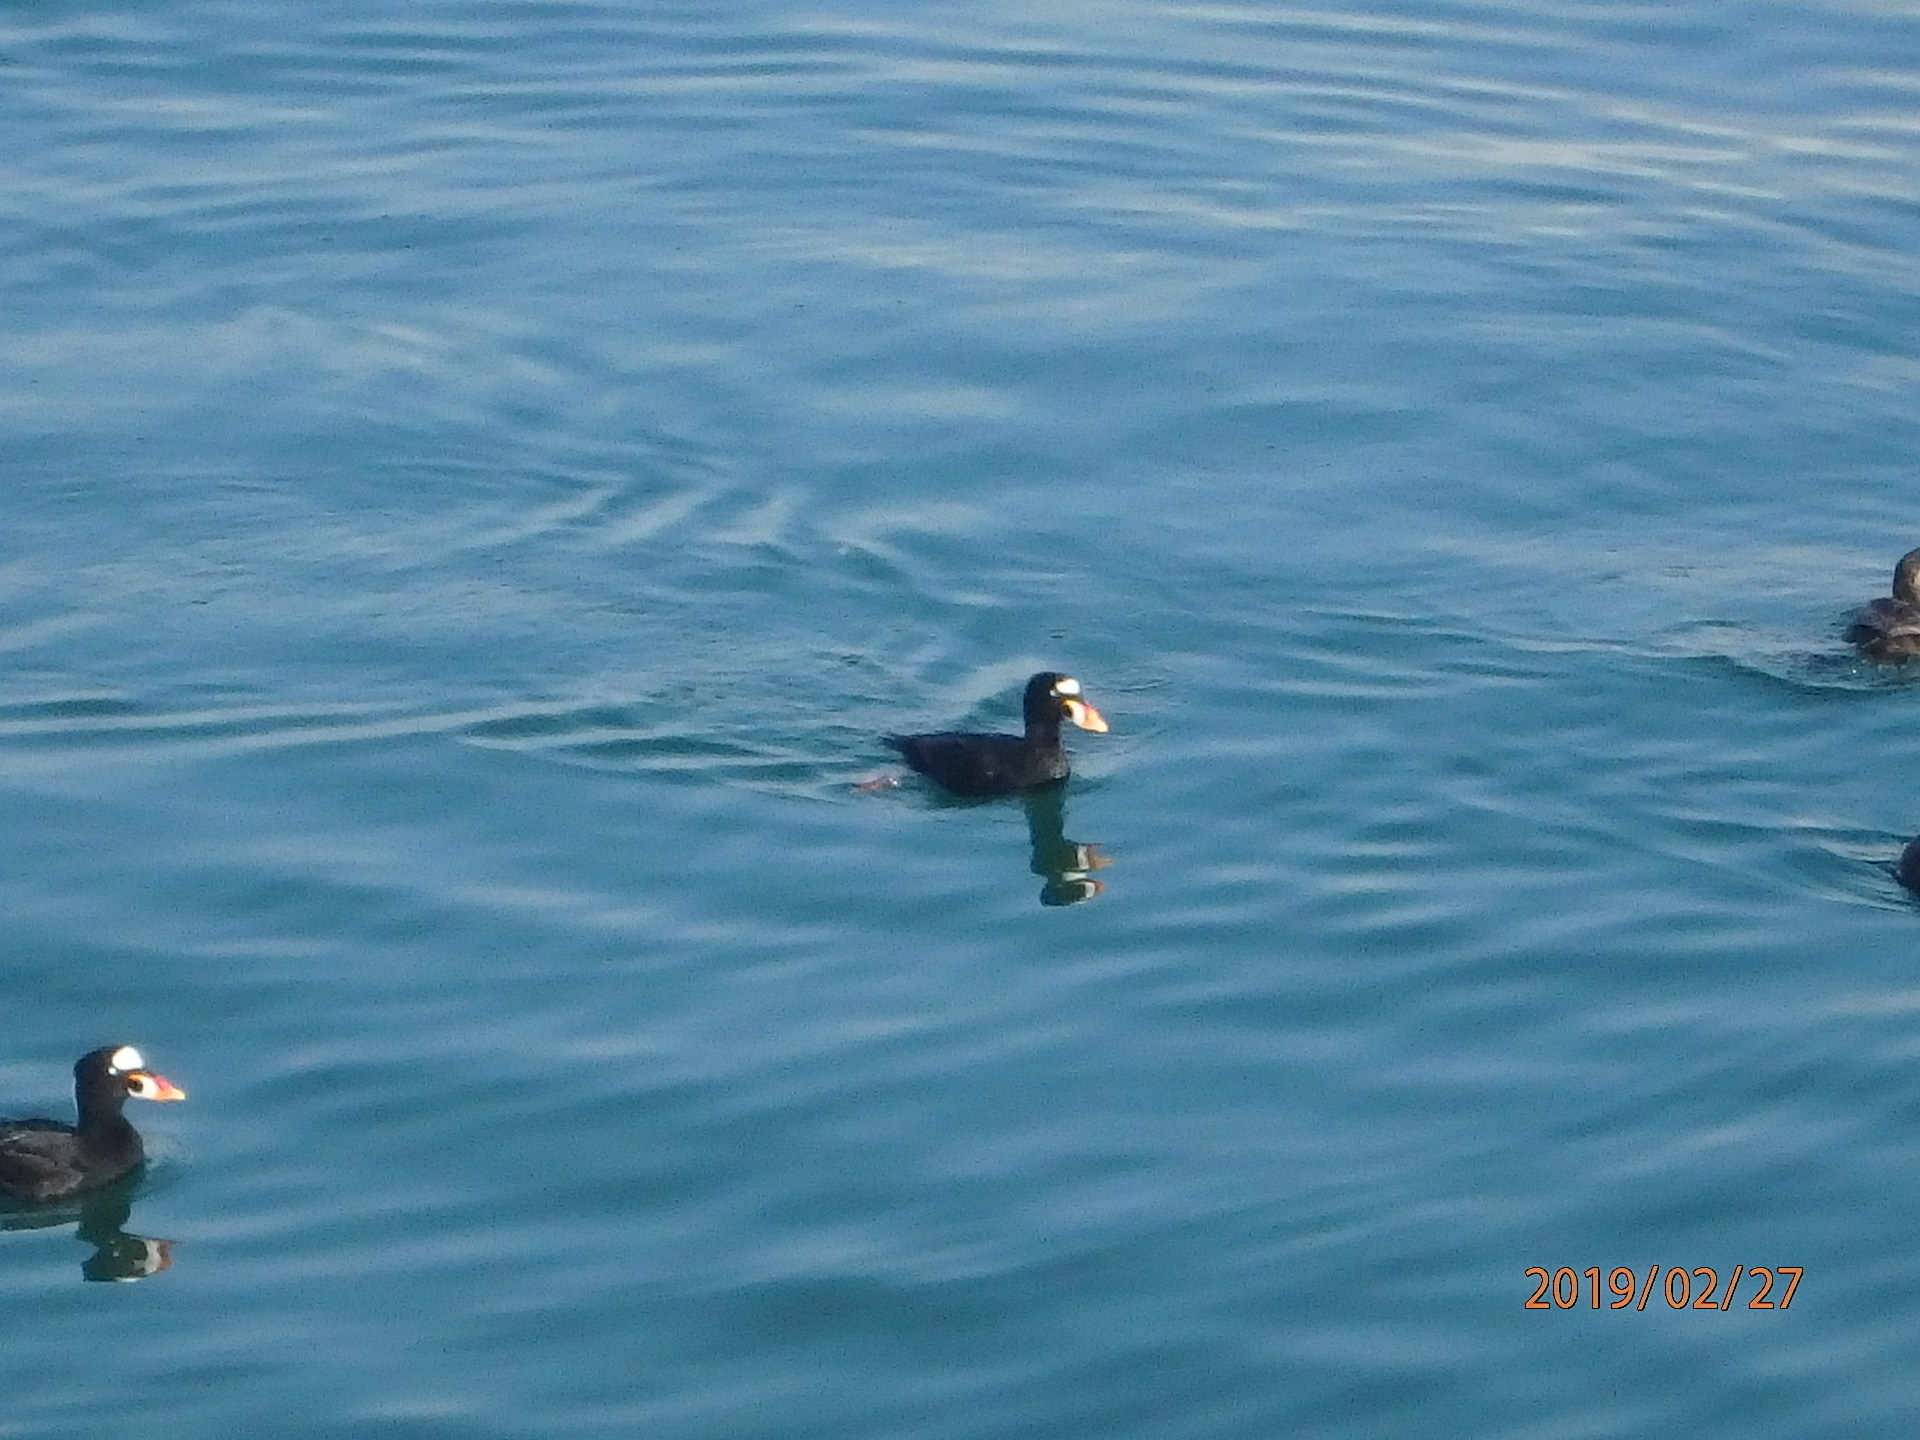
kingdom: Animalia
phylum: Chordata
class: Aves
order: Anseriformes
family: Anatidae
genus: Melanitta
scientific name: Melanitta perspicillata
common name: Surf scoter
